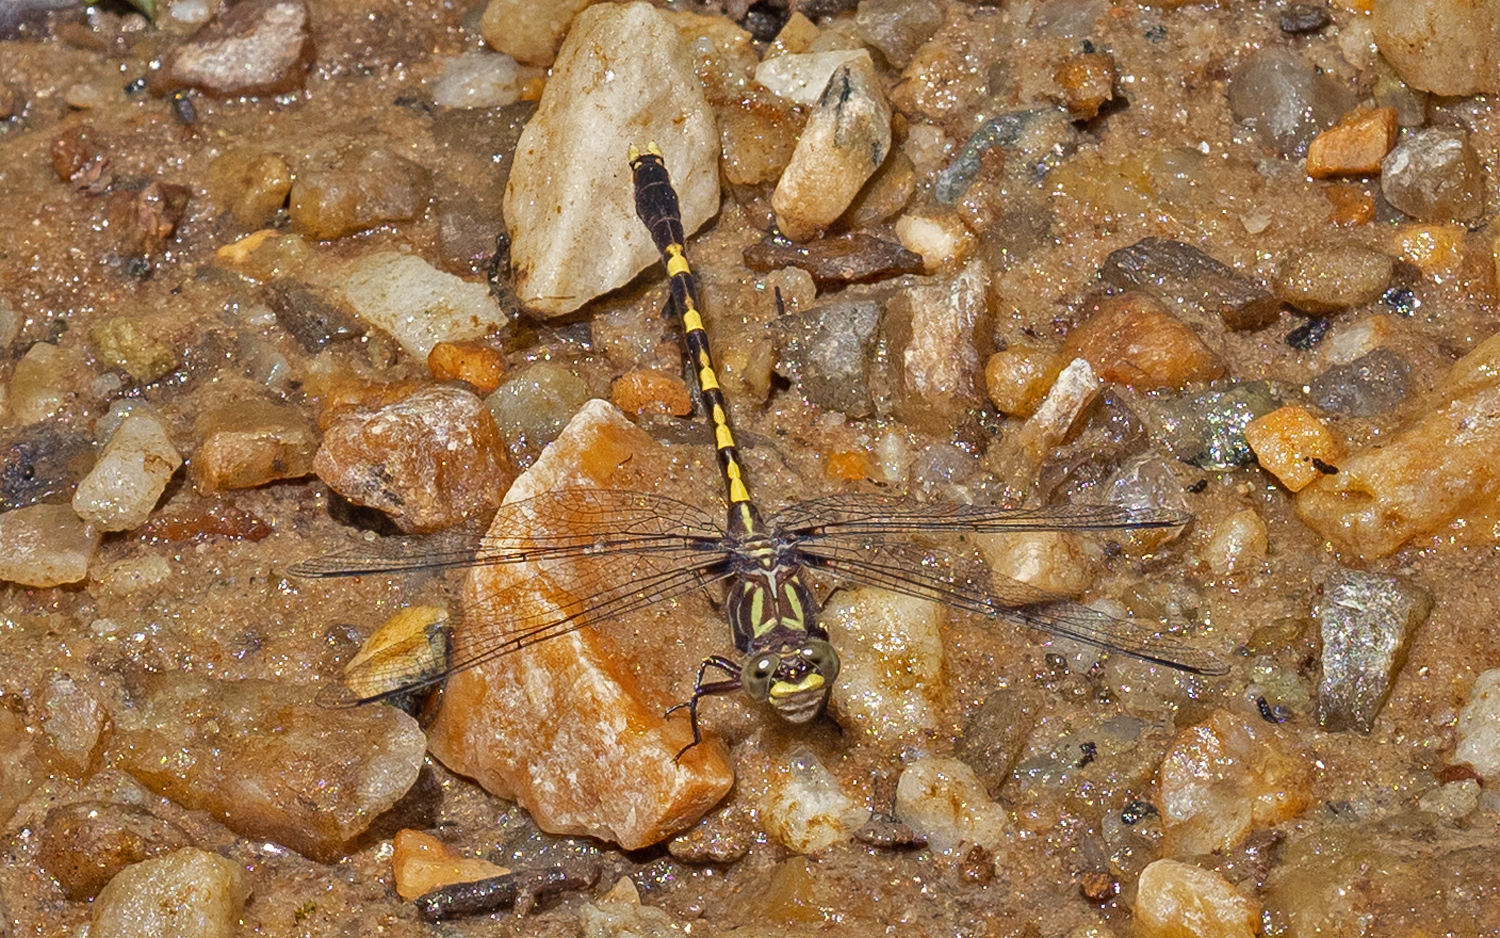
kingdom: Animalia
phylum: Arthropoda
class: Insecta
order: Odonata
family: Gomphidae
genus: Progomphus
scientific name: Progomphus obscurus
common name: Common sanddragon
